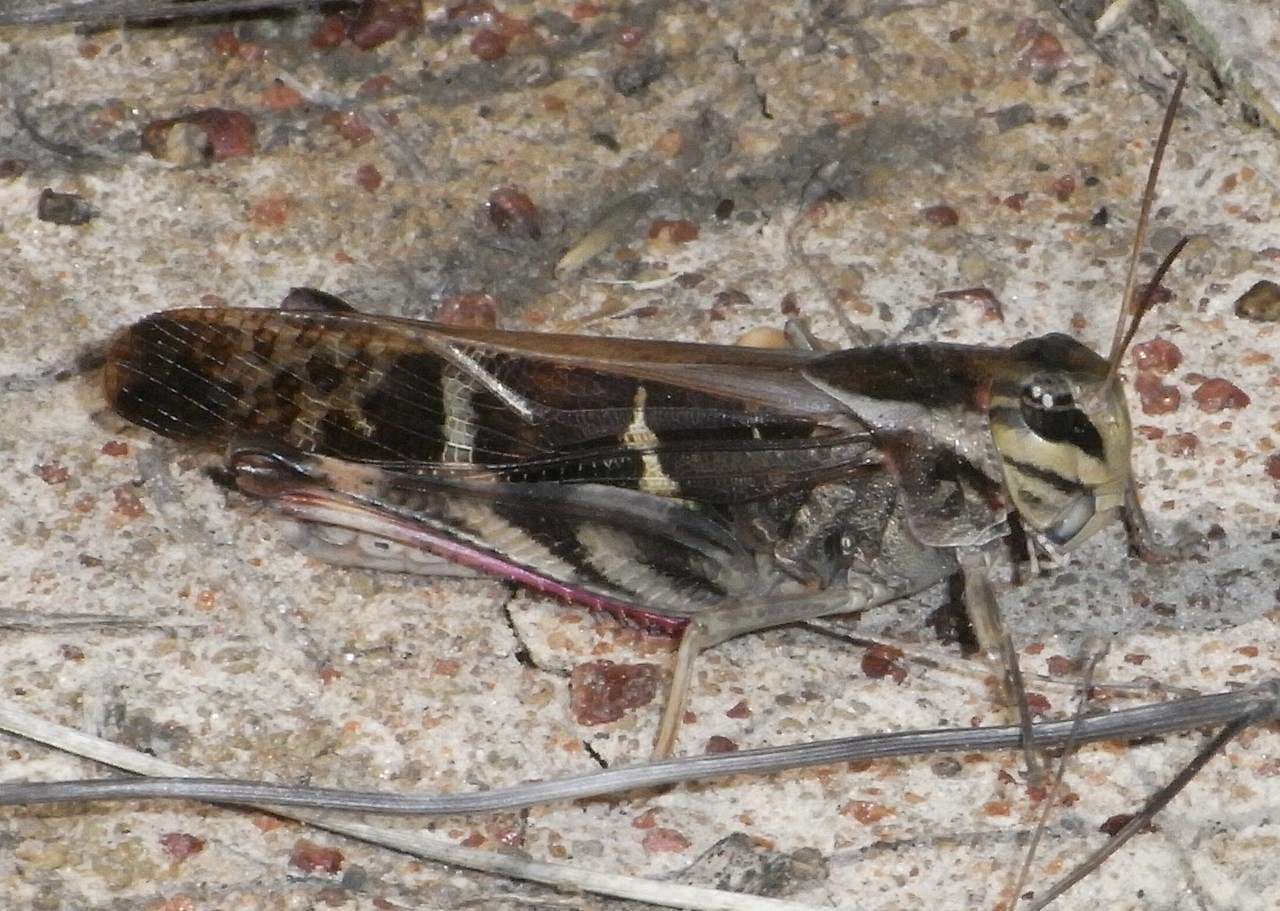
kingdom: Animalia
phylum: Arthropoda
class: Insecta
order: Orthoptera
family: Acrididae
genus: Gastrimargus
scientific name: Gastrimargus musicus
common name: Yellow-winged locust
